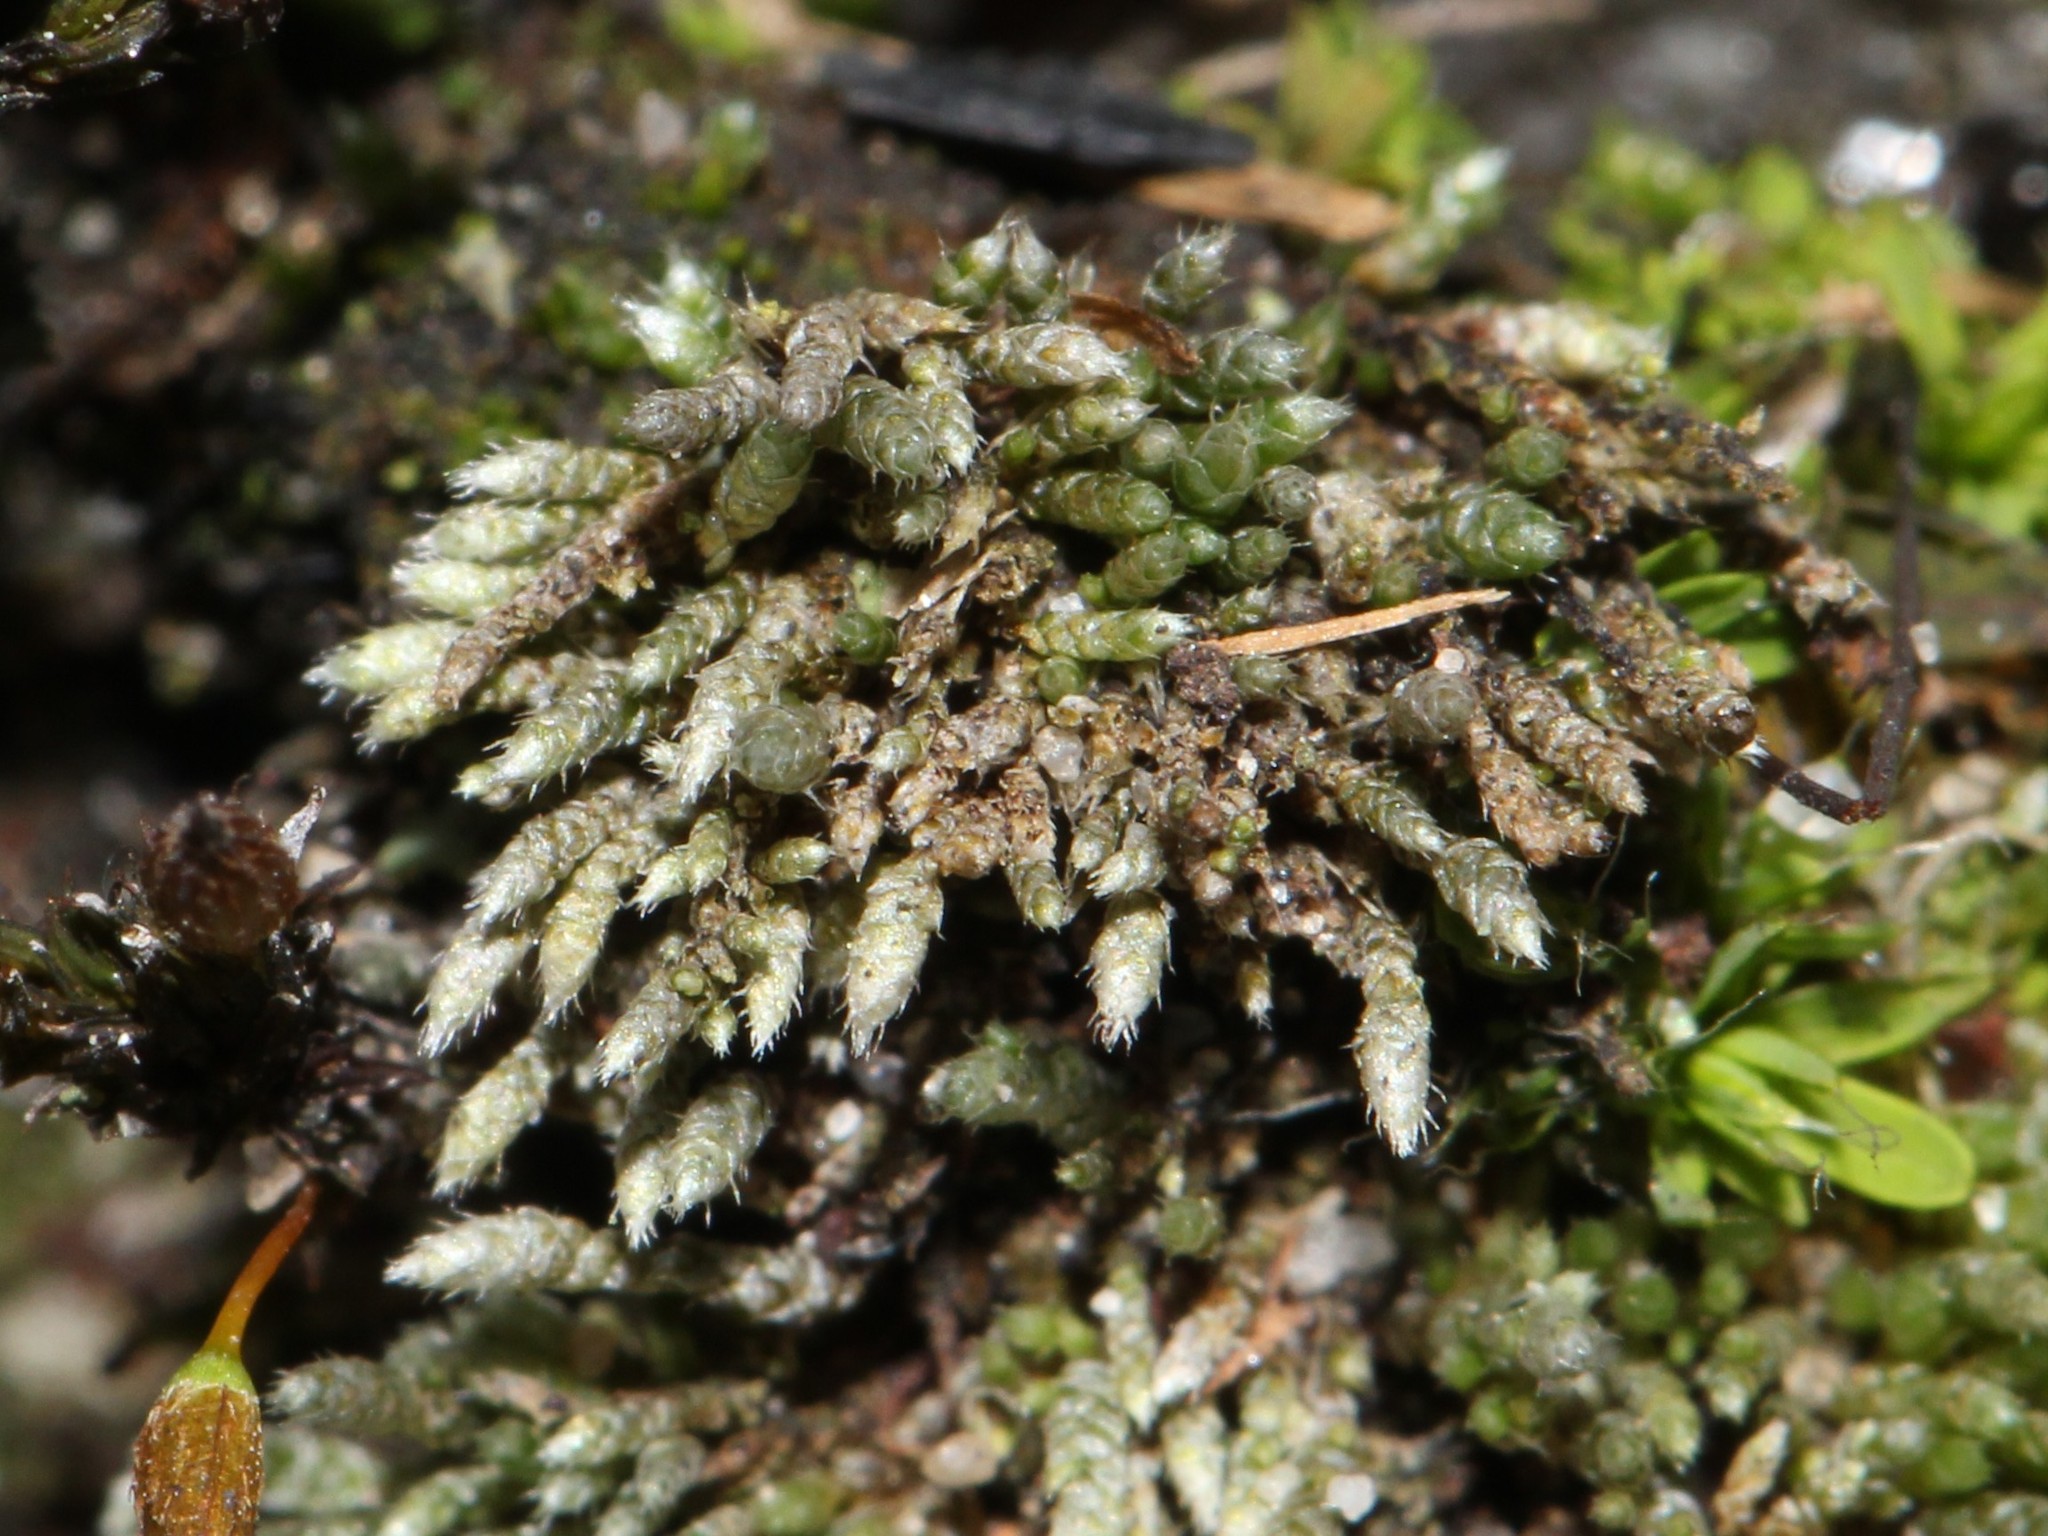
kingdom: Plantae
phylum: Bryophyta
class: Bryopsida
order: Bryales
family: Bryaceae
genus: Bryum
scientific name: Bryum argenteum
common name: Silver-moss
